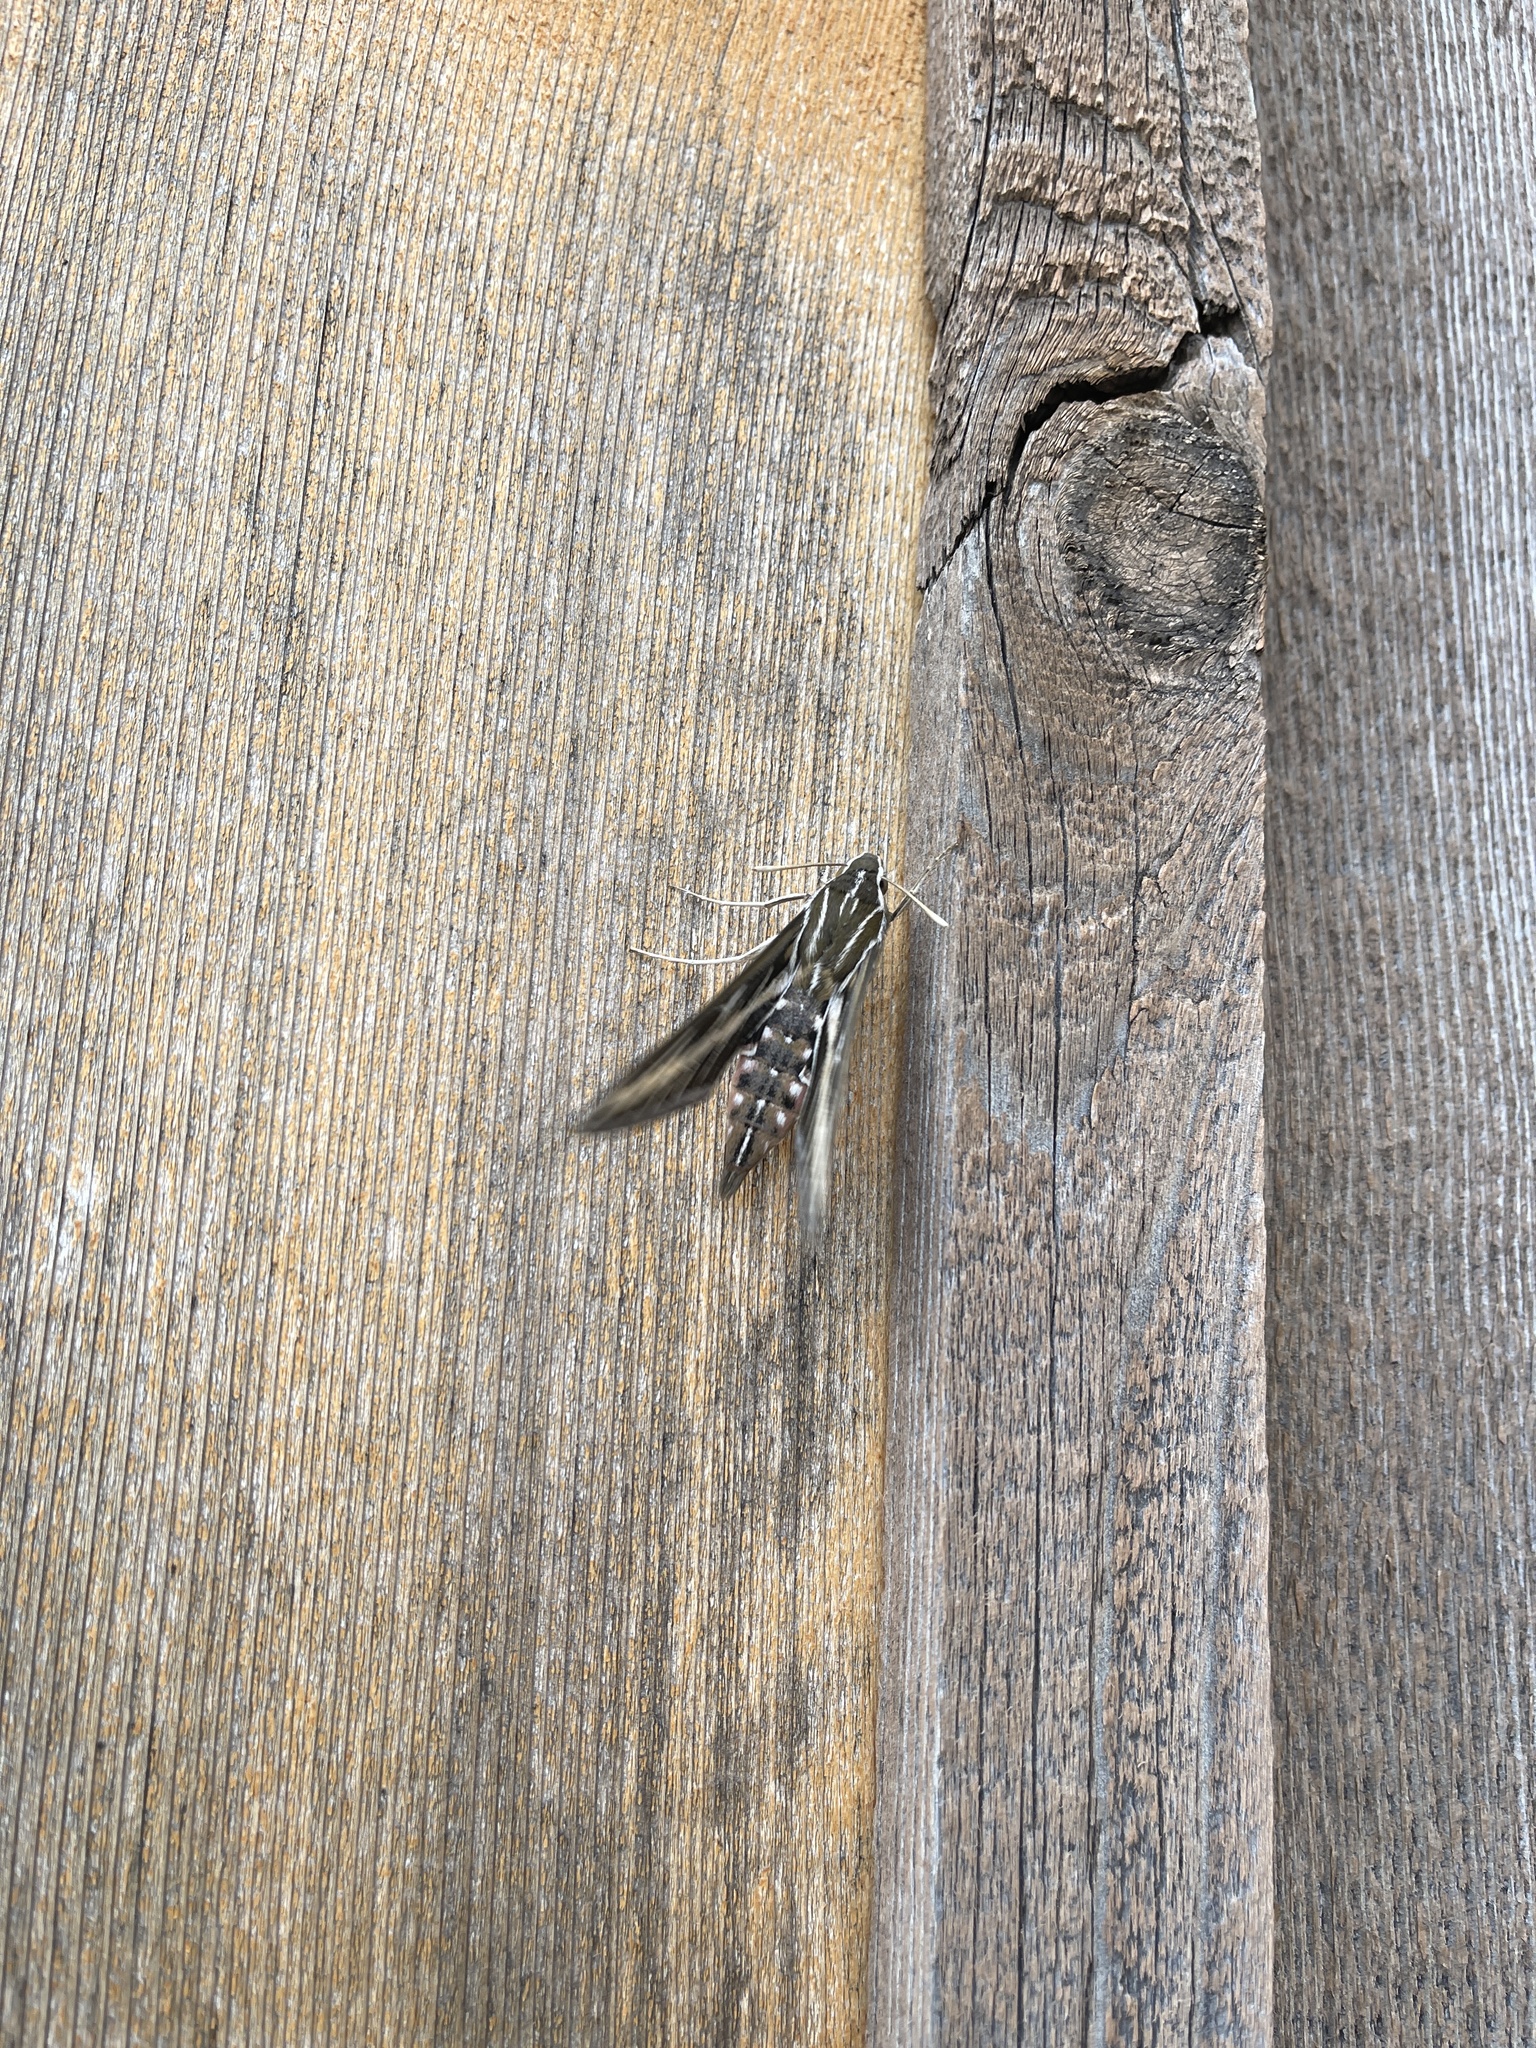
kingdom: Animalia
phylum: Arthropoda
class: Insecta
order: Lepidoptera
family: Sphingidae
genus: Hyles
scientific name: Hyles lineata
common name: White-lined sphinx
